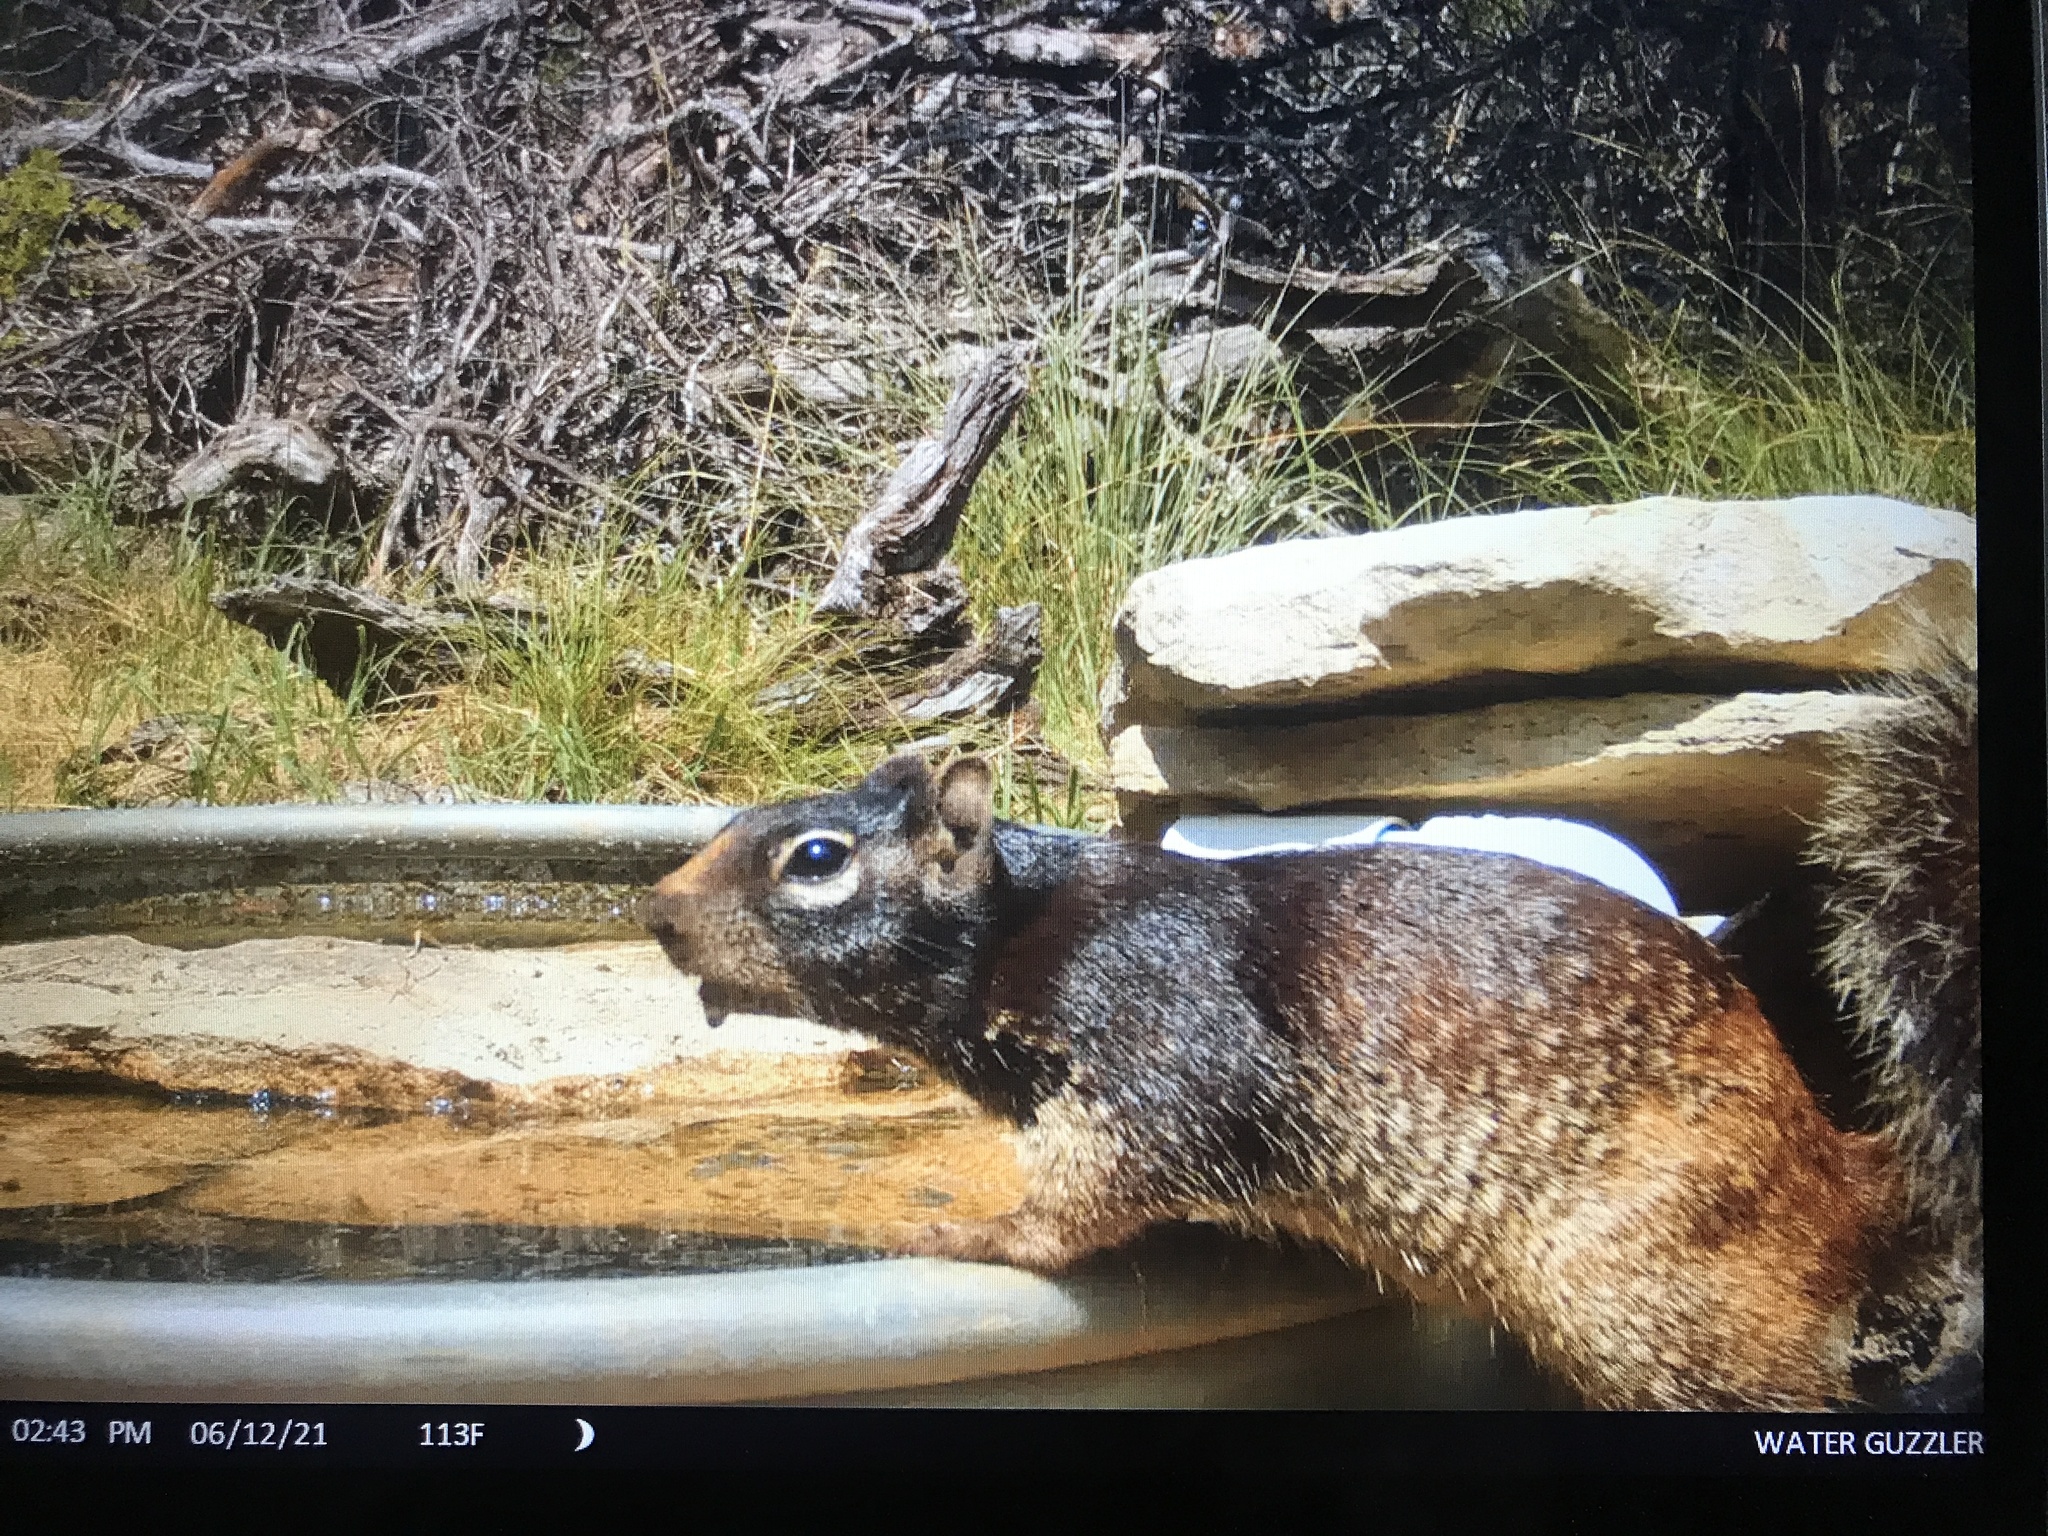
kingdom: Animalia
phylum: Chordata
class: Mammalia
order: Rodentia
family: Sciuridae
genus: Otospermophilus
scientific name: Otospermophilus variegatus
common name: Rock squirrel
